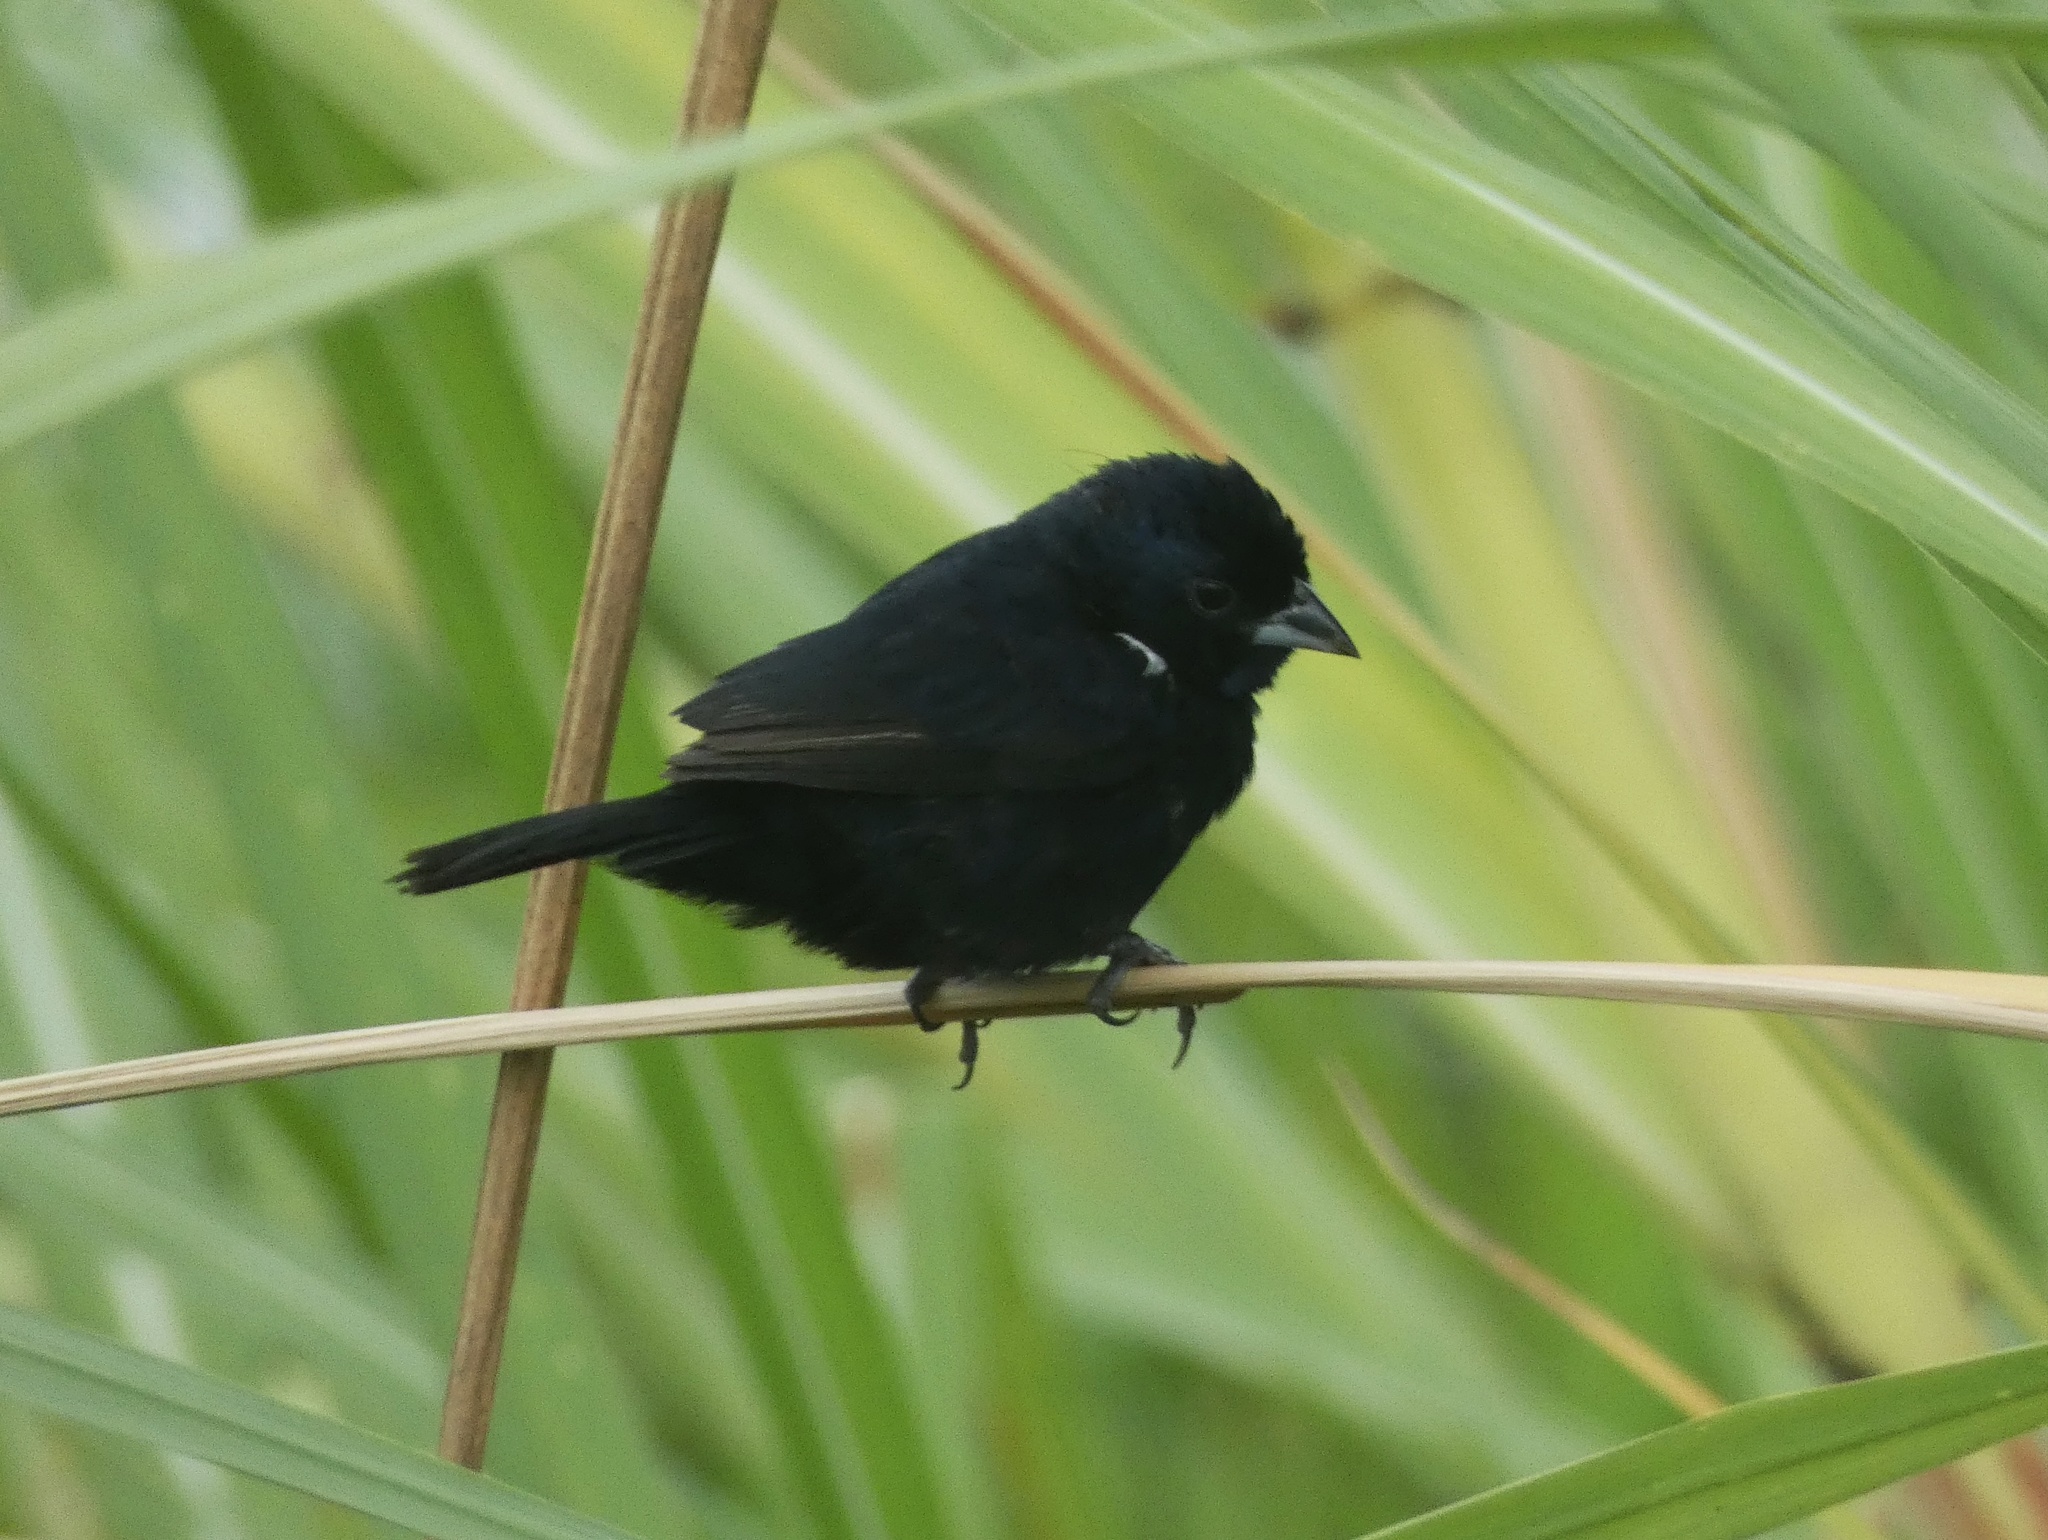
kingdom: Animalia
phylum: Chordata
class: Aves
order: Passeriformes
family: Thraupidae
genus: Volatinia
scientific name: Volatinia jacarina
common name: Blue-black grassquit
